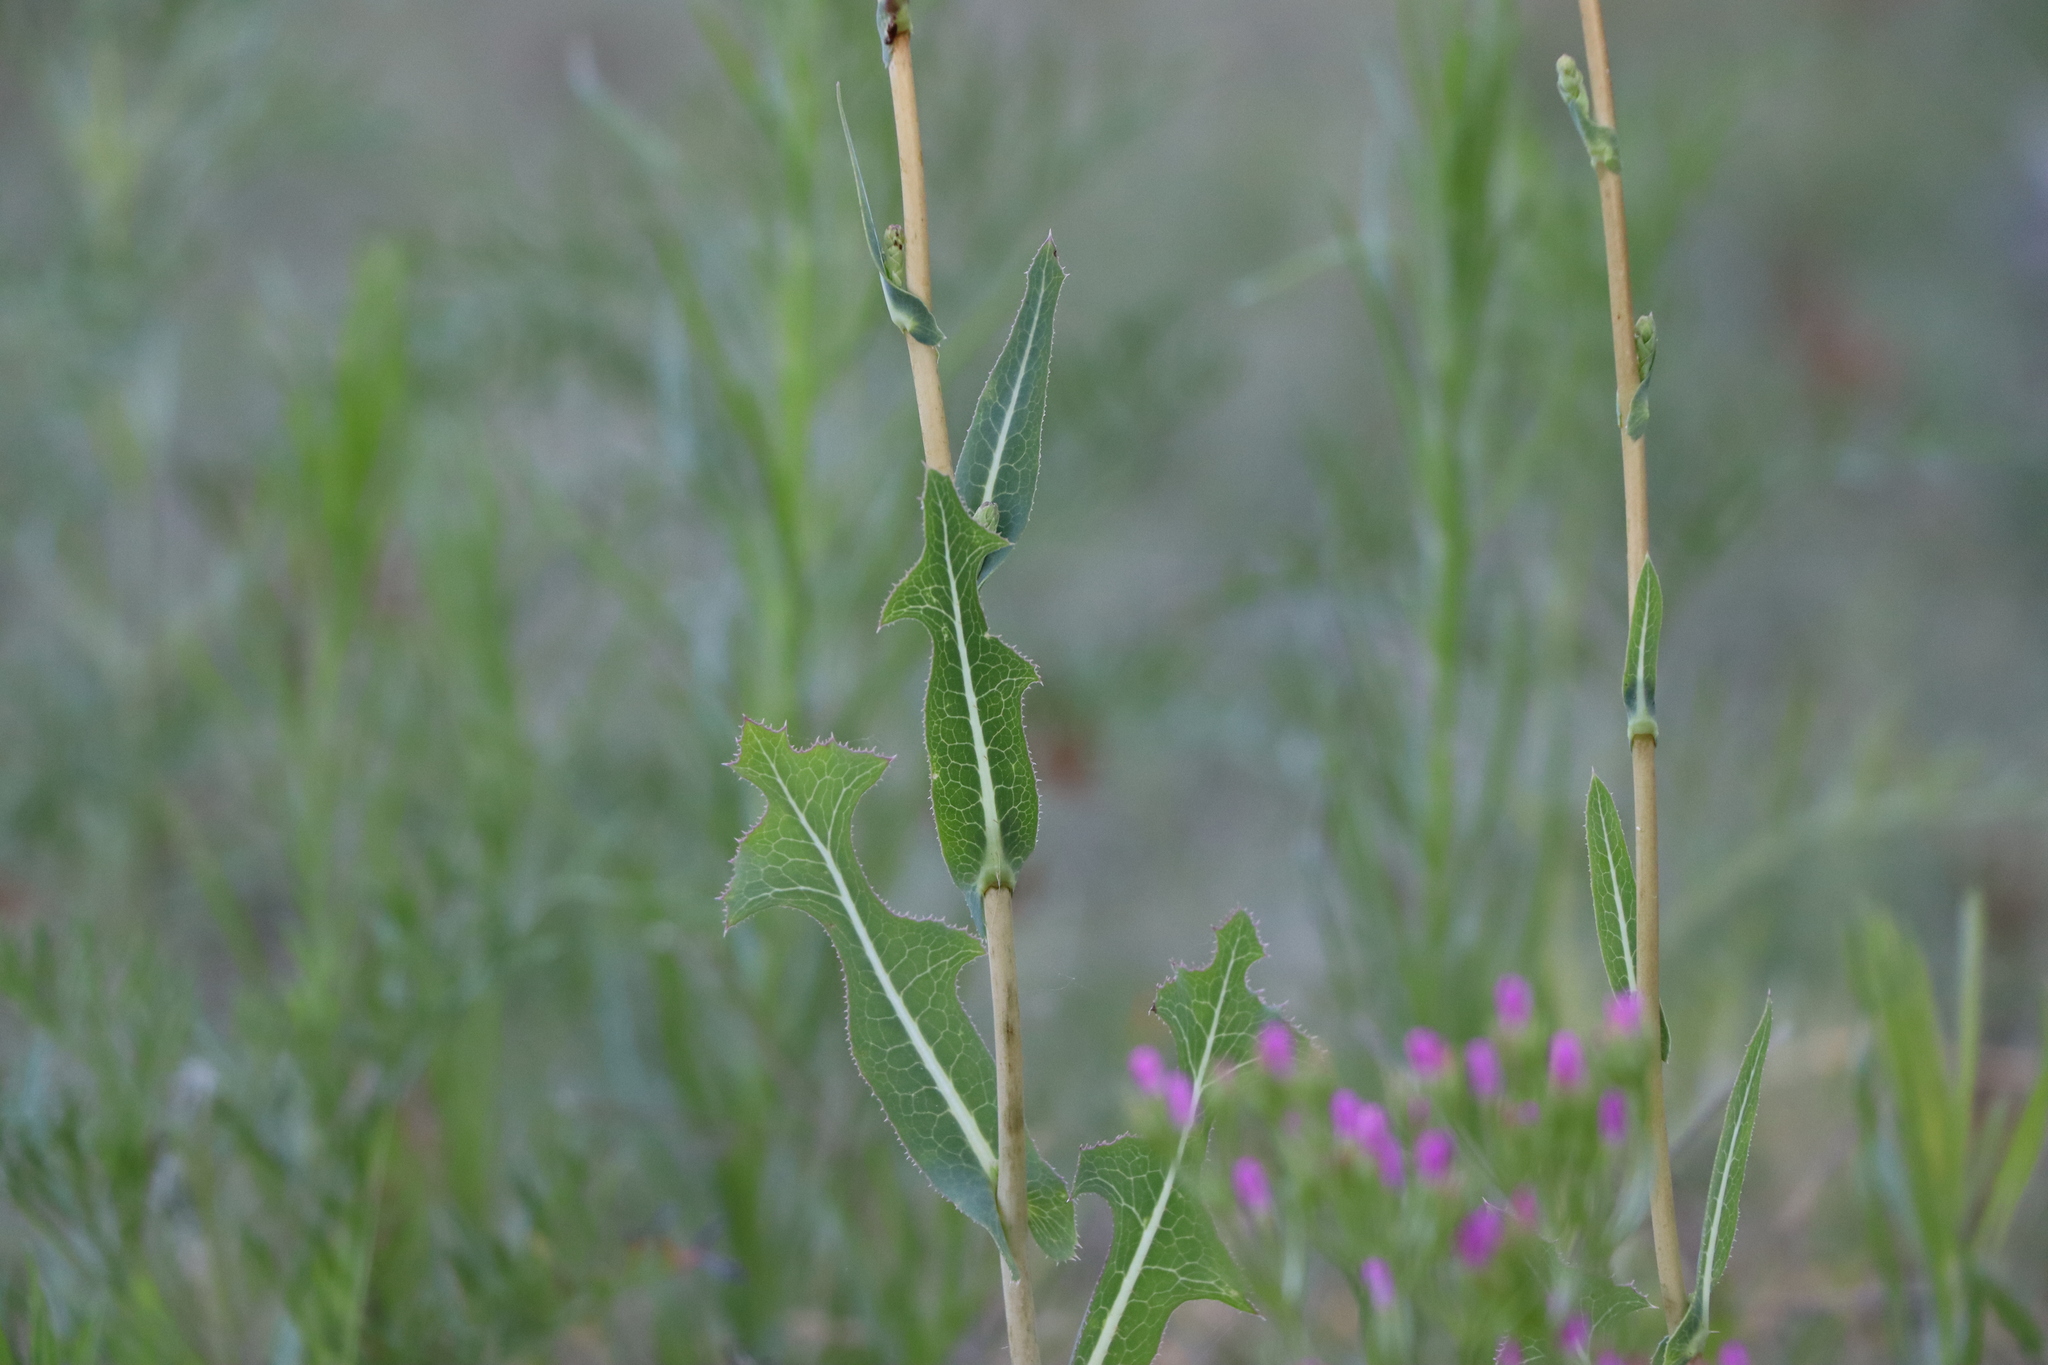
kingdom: Plantae
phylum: Tracheophyta
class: Magnoliopsida
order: Asterales
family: Asteraceae
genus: Lactuca
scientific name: Lactuca serriola
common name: Prickly lettuce
